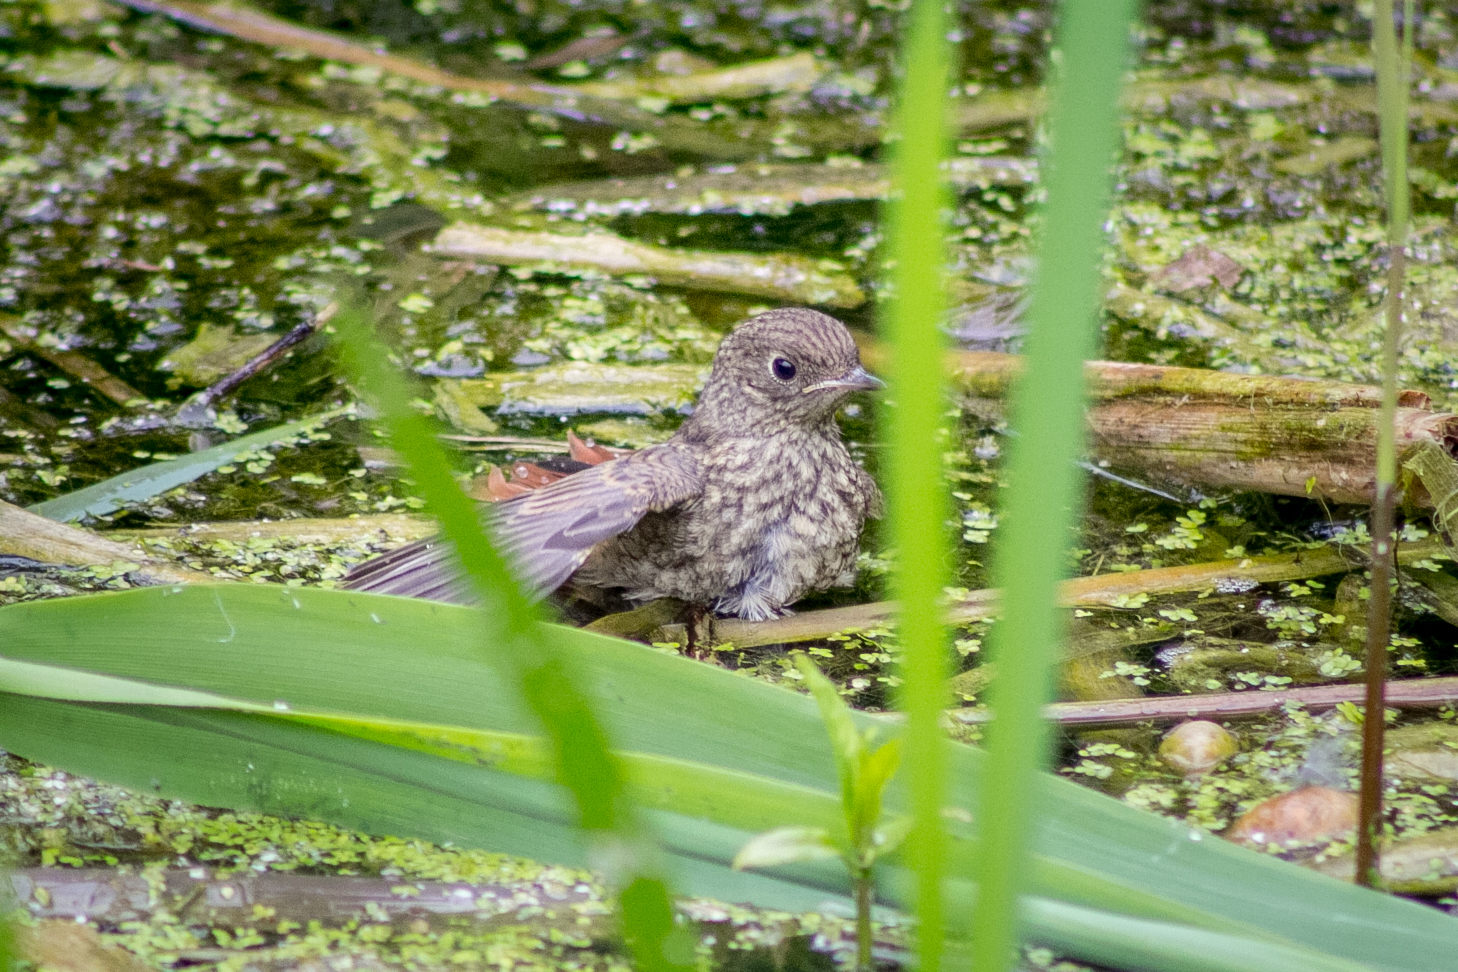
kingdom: Animalia
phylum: Chordata
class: Aves
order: Passeriformes
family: Muscicapidae
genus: Phoenicurus
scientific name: Phoenicurus phoenicurus
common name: Common redstart
